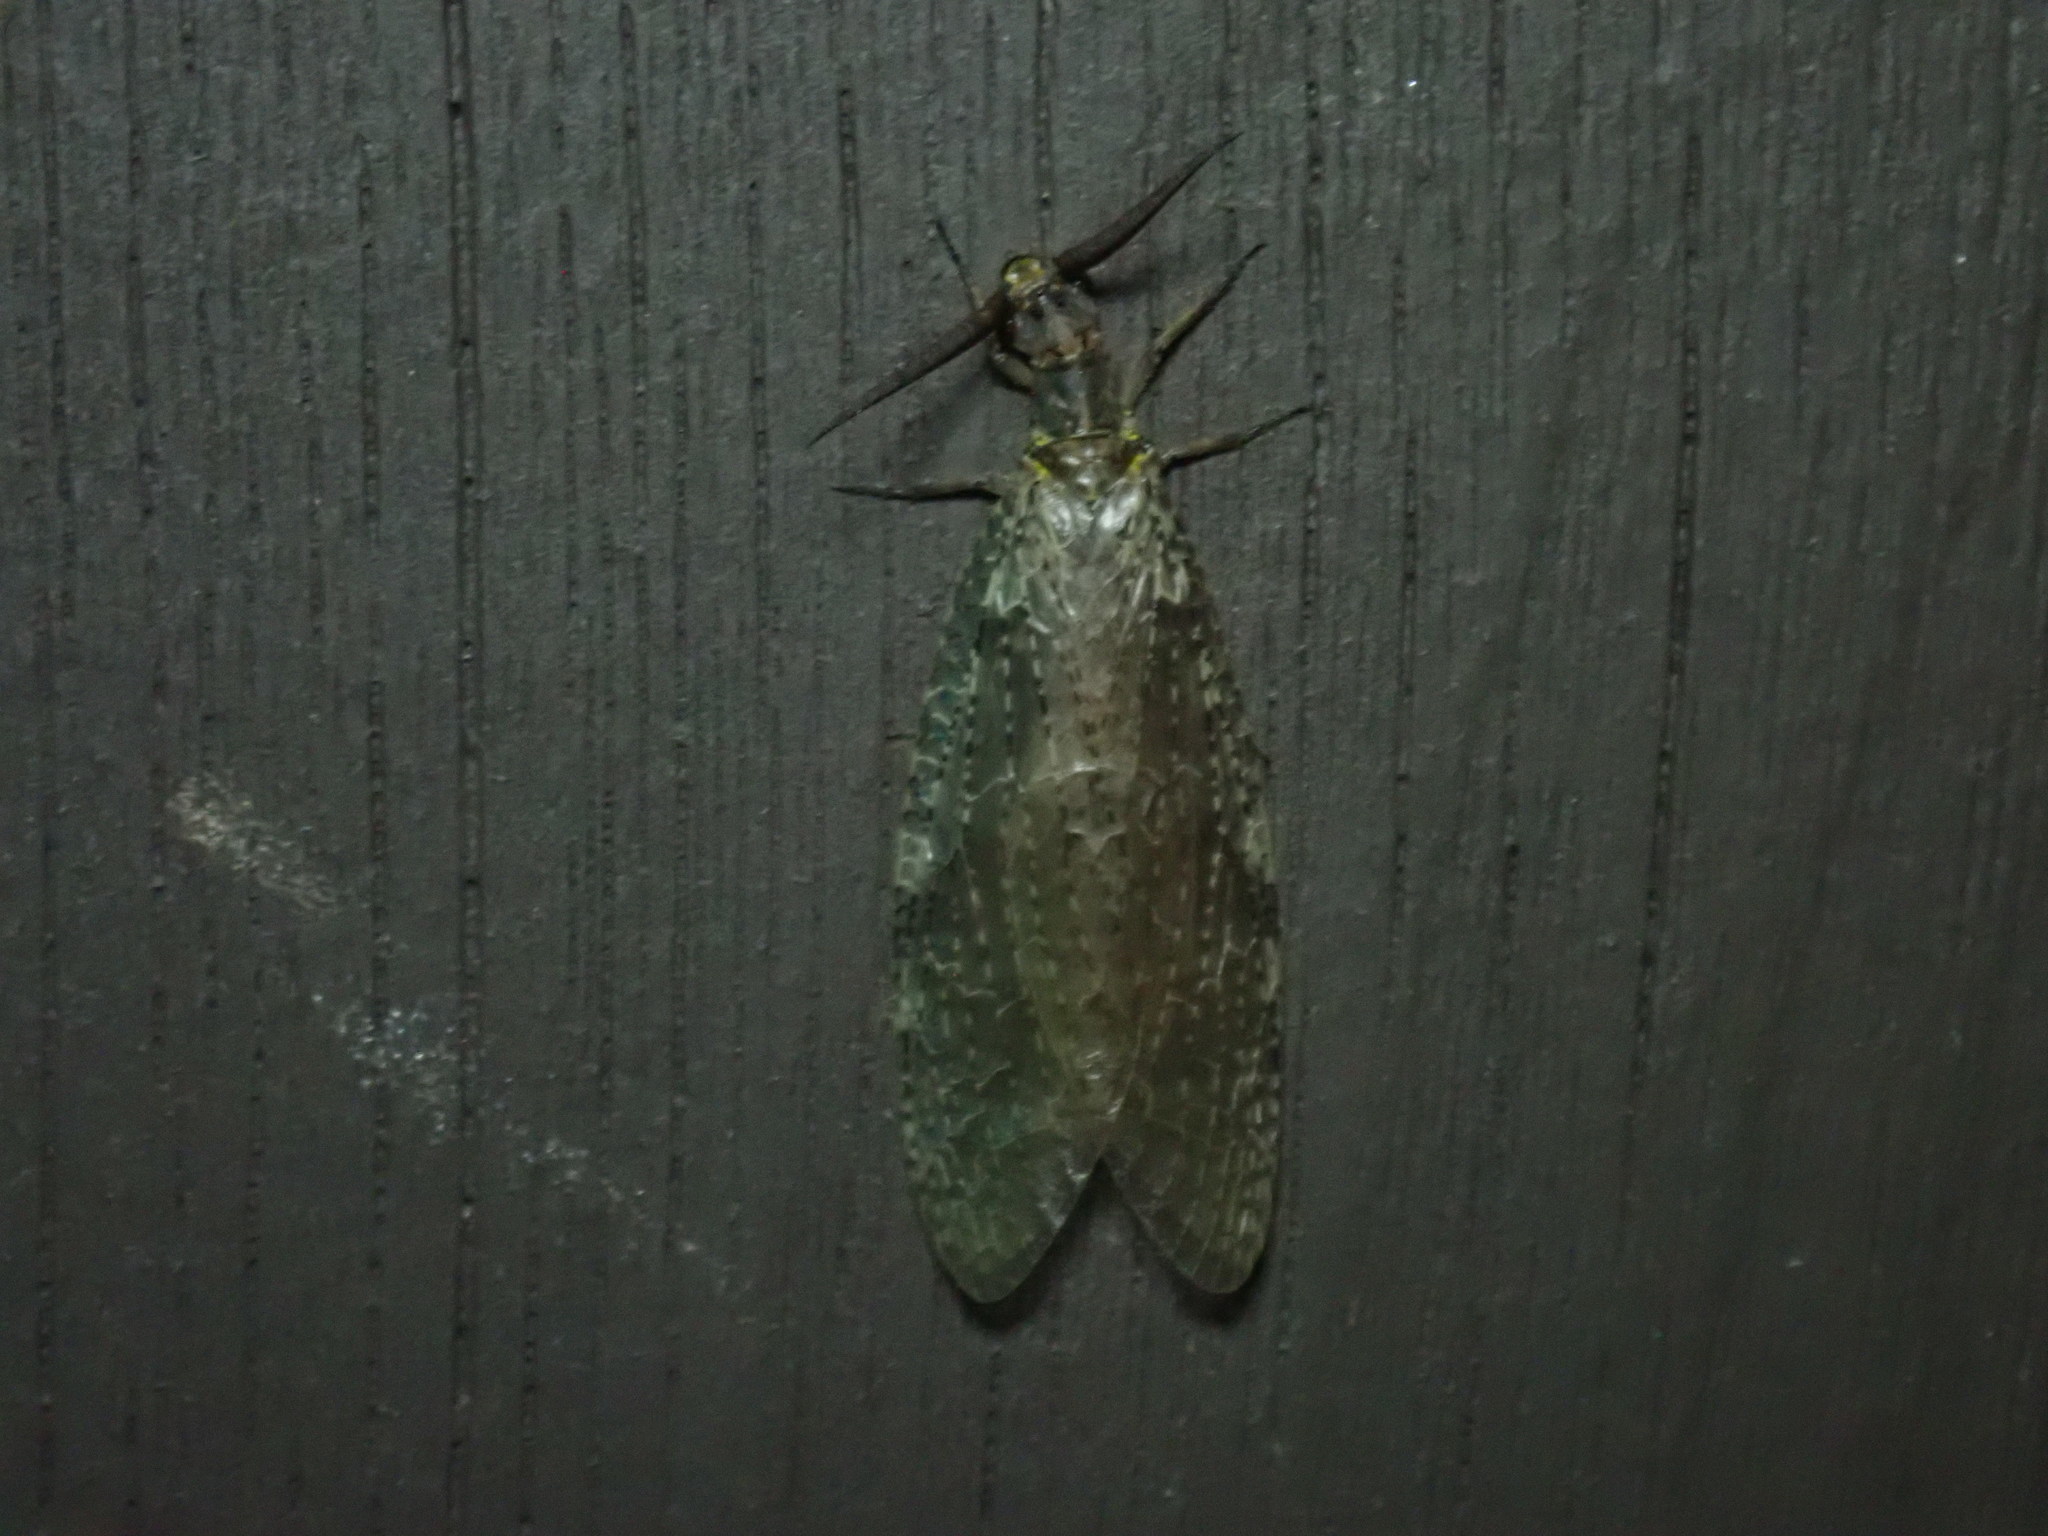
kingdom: Animalia
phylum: Arthropoda
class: Insecta
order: Megaloptera
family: Corydalidae
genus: Chauliodes
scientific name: Chauliodes pectinicornis
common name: Summer fishfly
